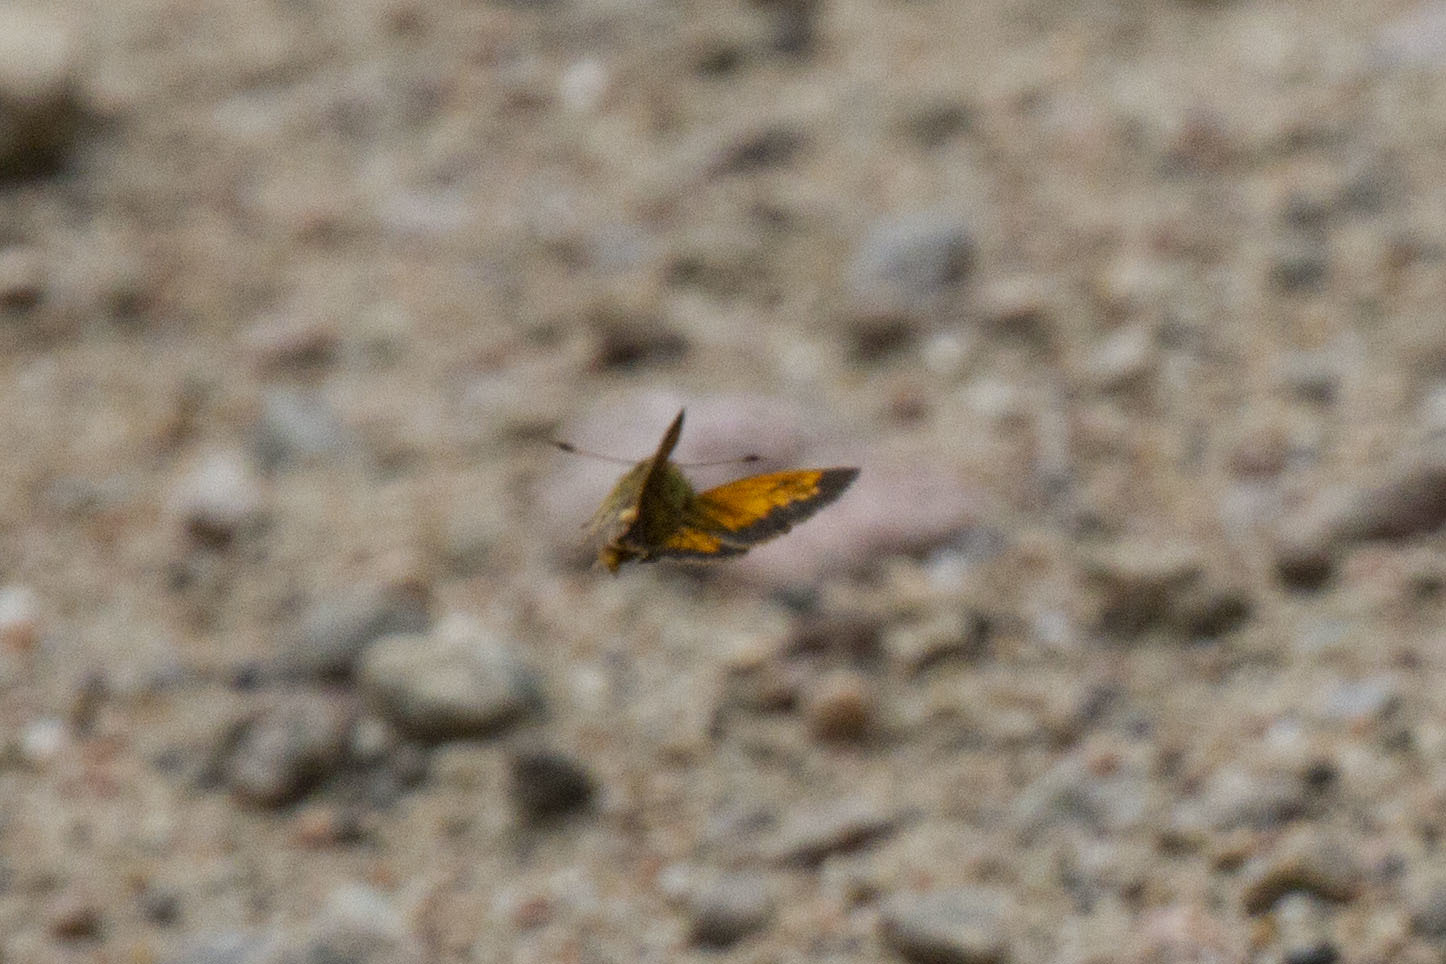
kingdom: Animalia
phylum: Arthropoda
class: Insecta
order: Lepidoptera
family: Hesperiidae
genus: Lon
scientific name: Lon hobomok
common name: Hobomok skipper
